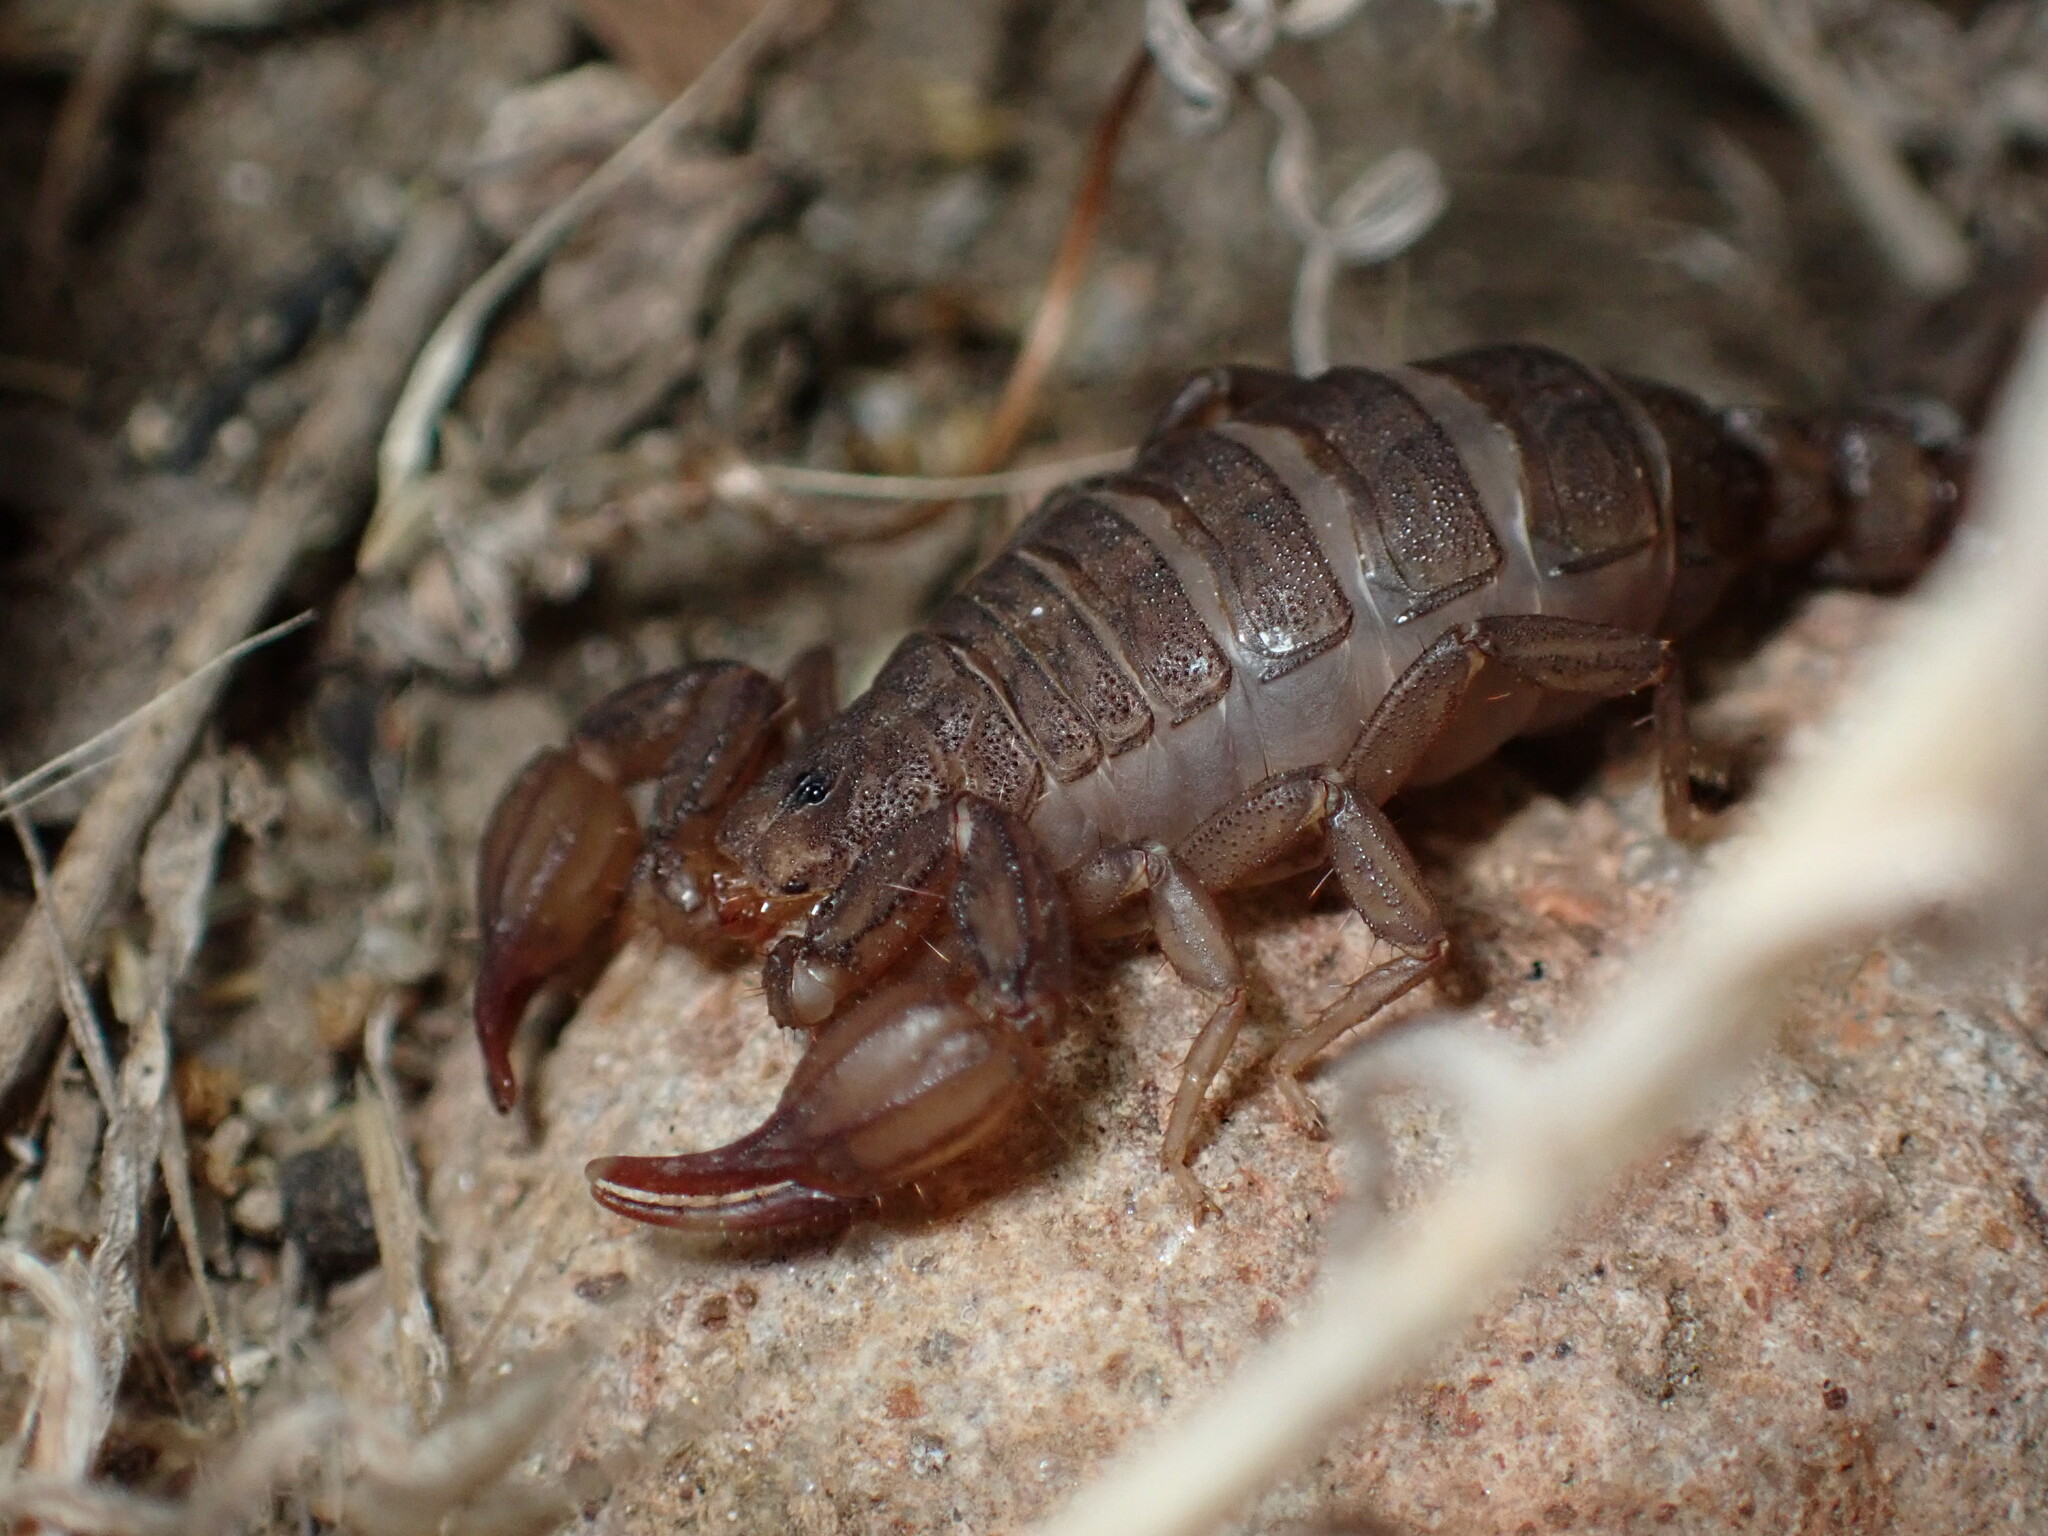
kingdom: Animalia
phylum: Arthropoda
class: Arachnida
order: Scorpiones
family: Vaejovidae
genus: Catalinia
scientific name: Catalinia thompsoni
